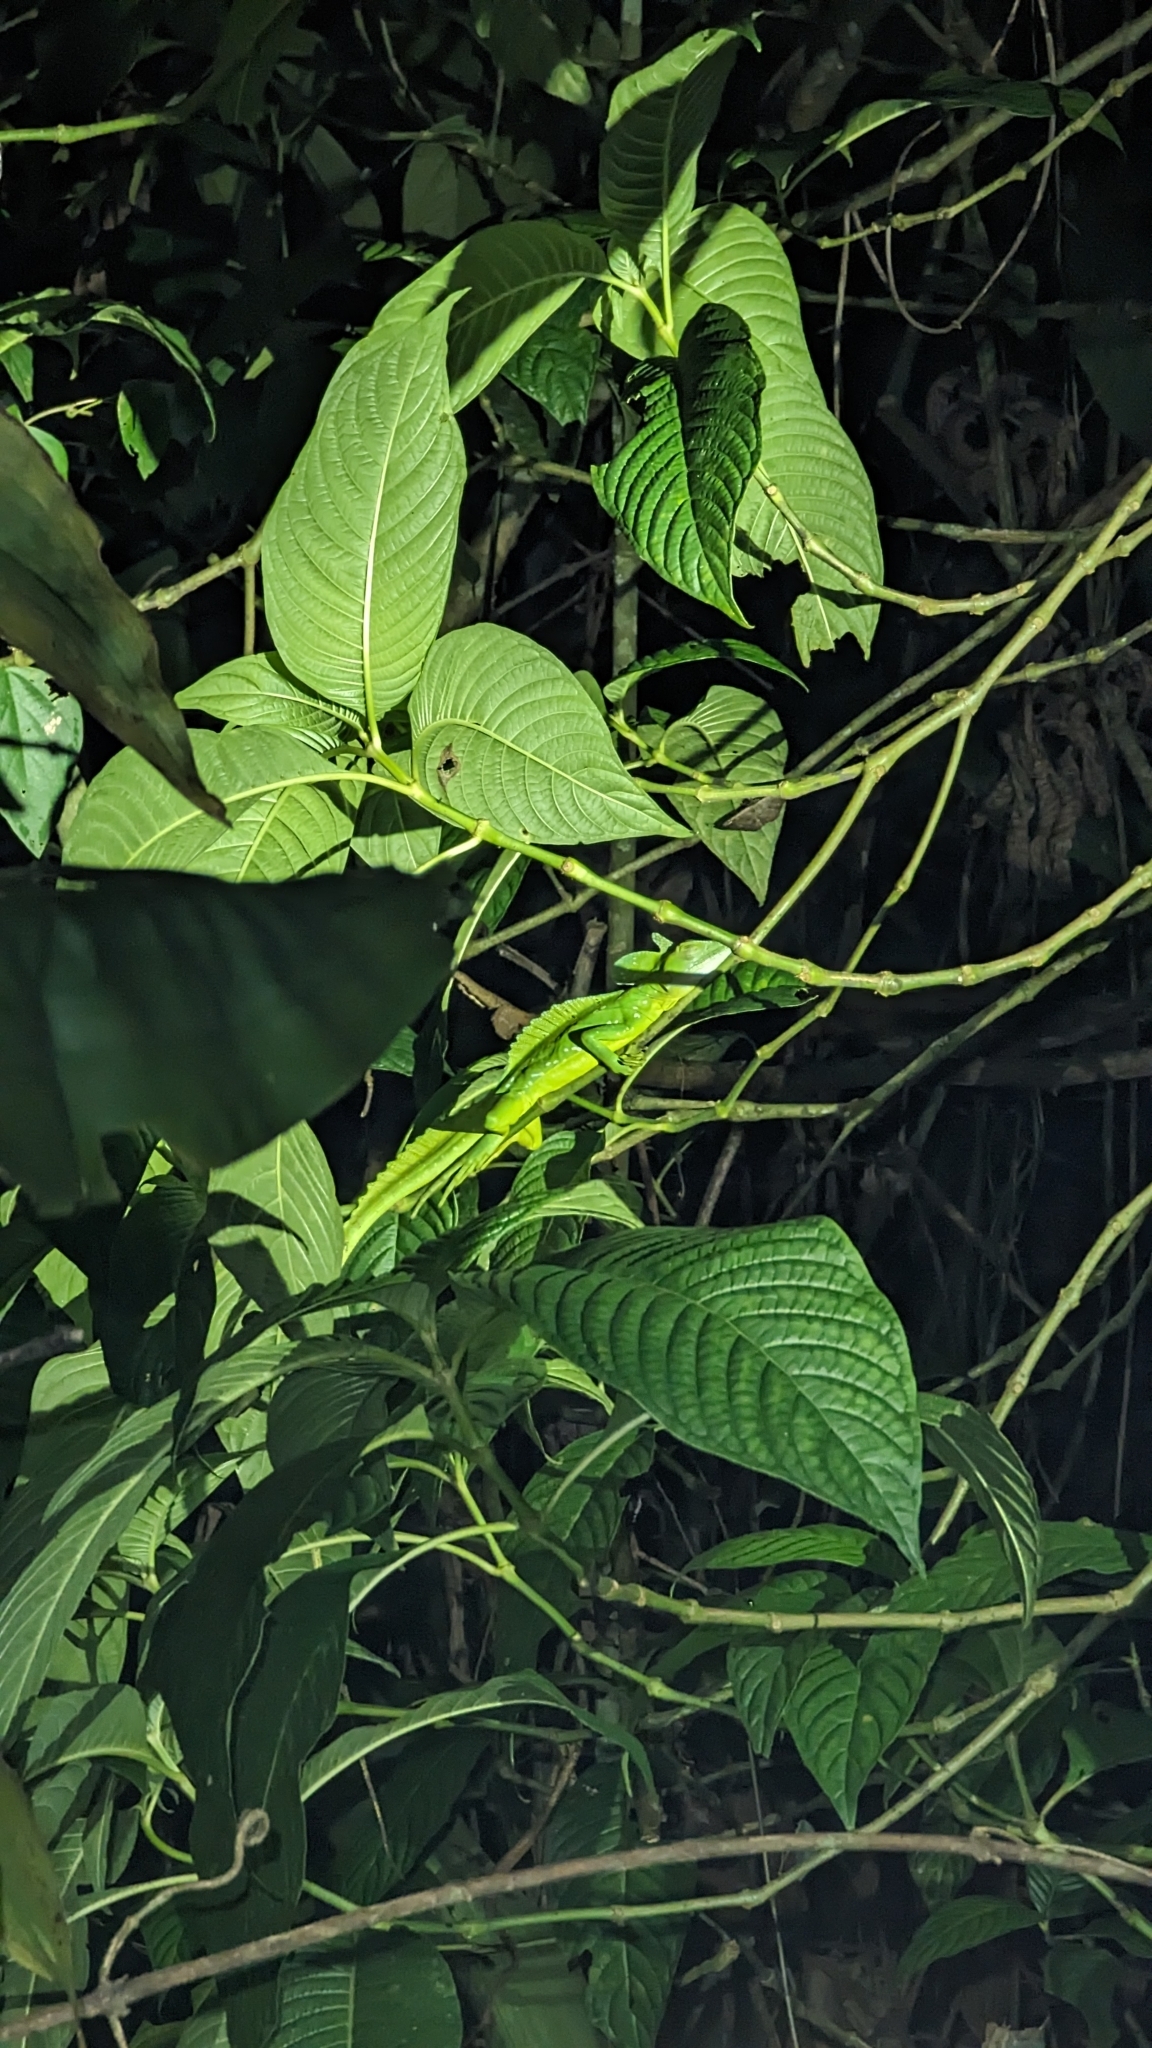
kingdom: Animalia
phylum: Chordata
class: Squamata
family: Corytophanidae
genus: Basiliscus
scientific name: Basiliscus plumifrons
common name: Green basilisk
